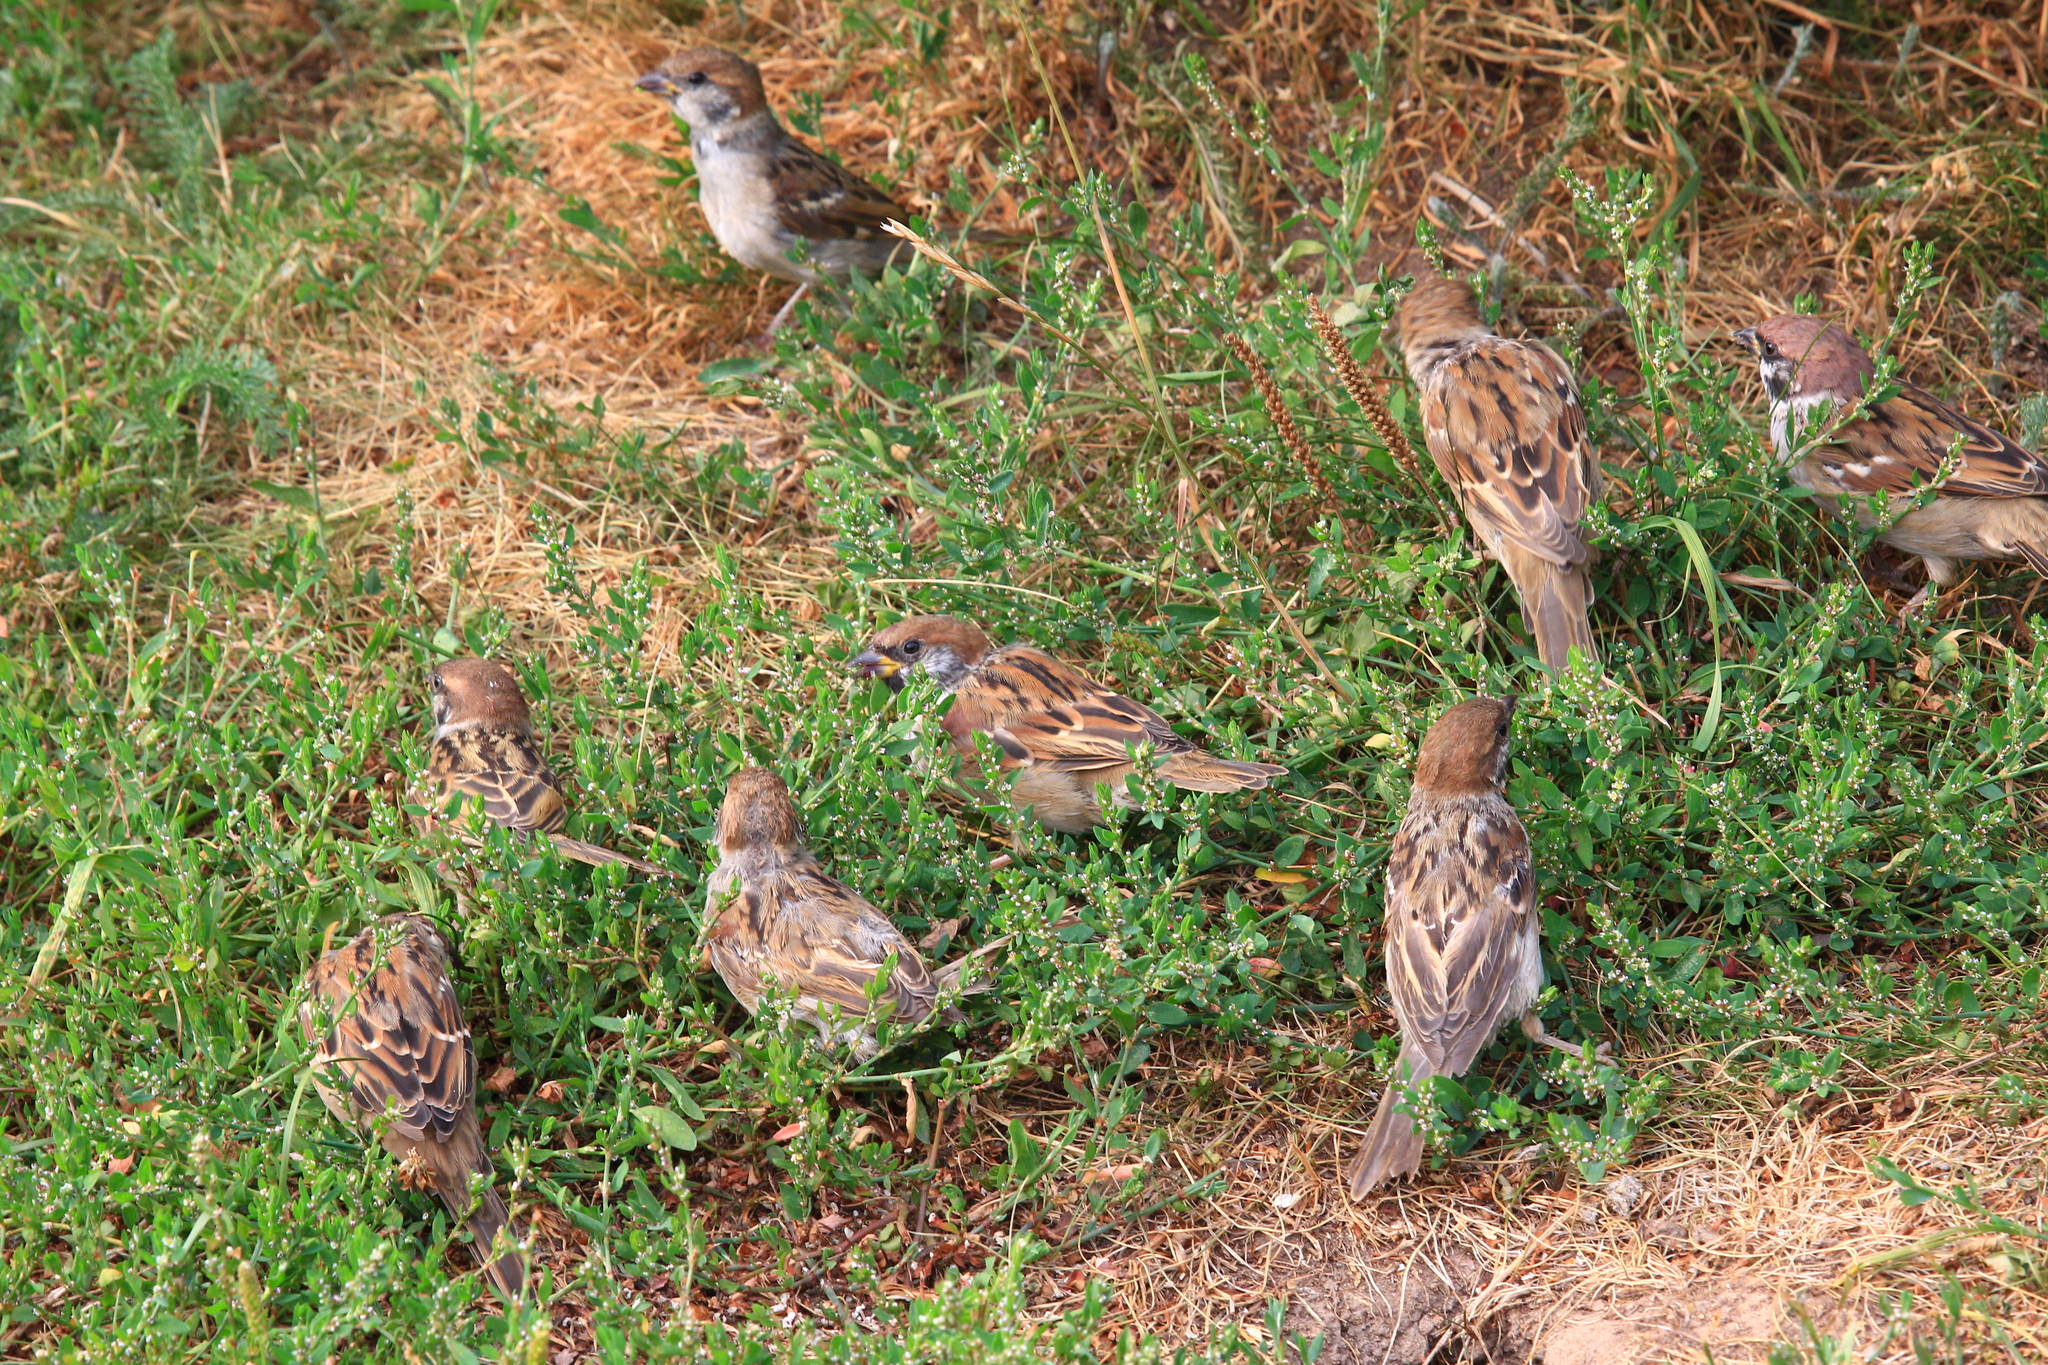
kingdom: Animalia
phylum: Chordata
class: Aves
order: Passeriformes
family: Passeridae
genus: Passer
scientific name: Passer montanus
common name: Eurasian tree sparrow
